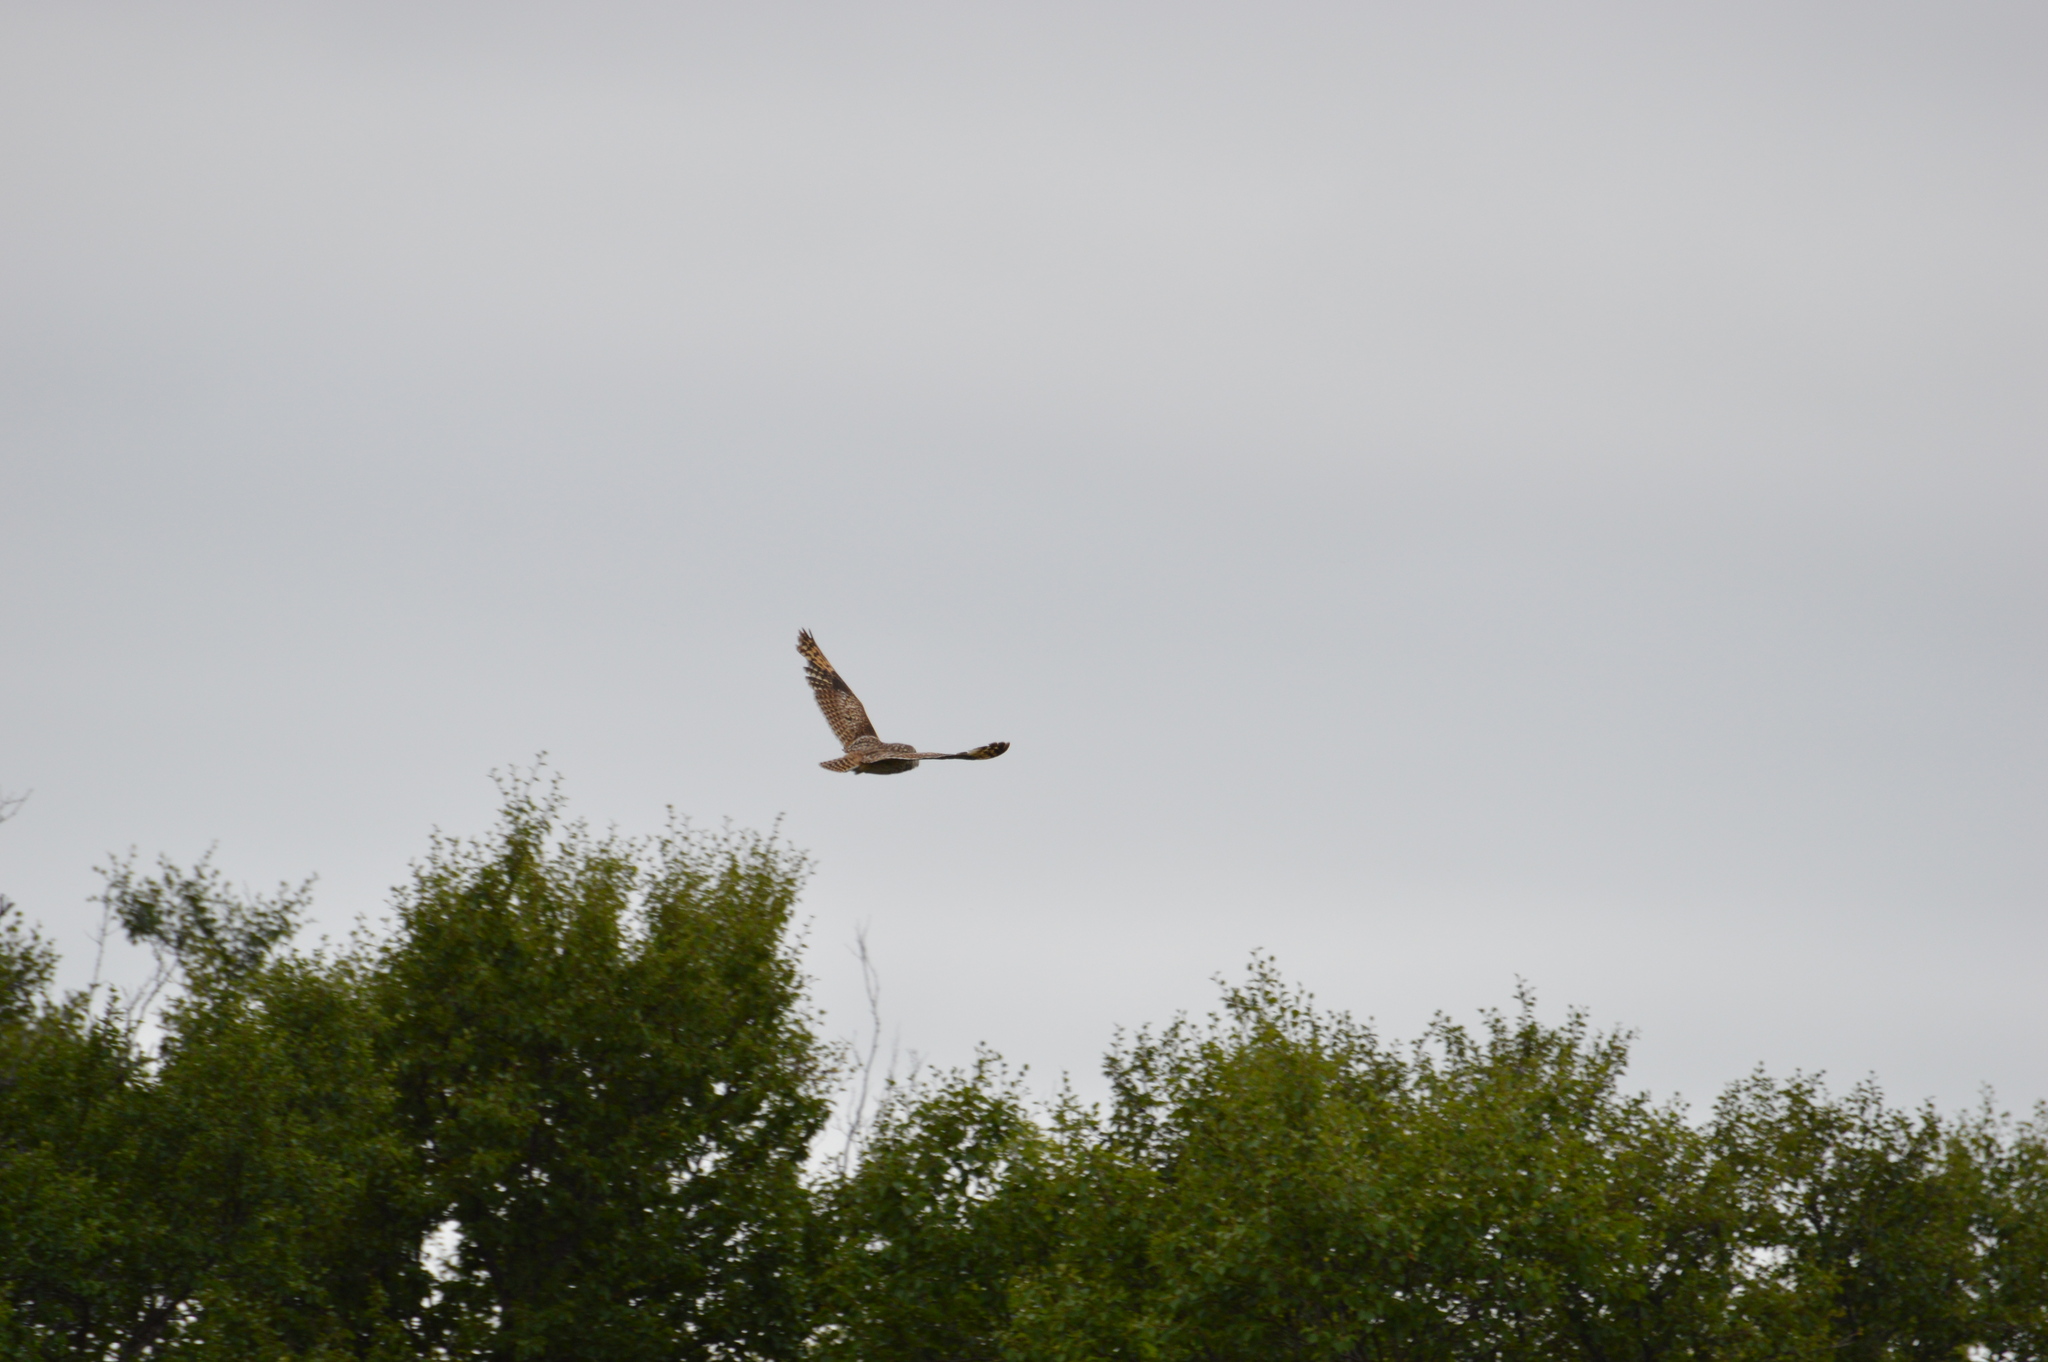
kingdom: Animalia
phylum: Chordata
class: Aves
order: Strigiformes
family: Strigidae
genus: Asio
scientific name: Asio flammeus
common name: Short-eared owl
